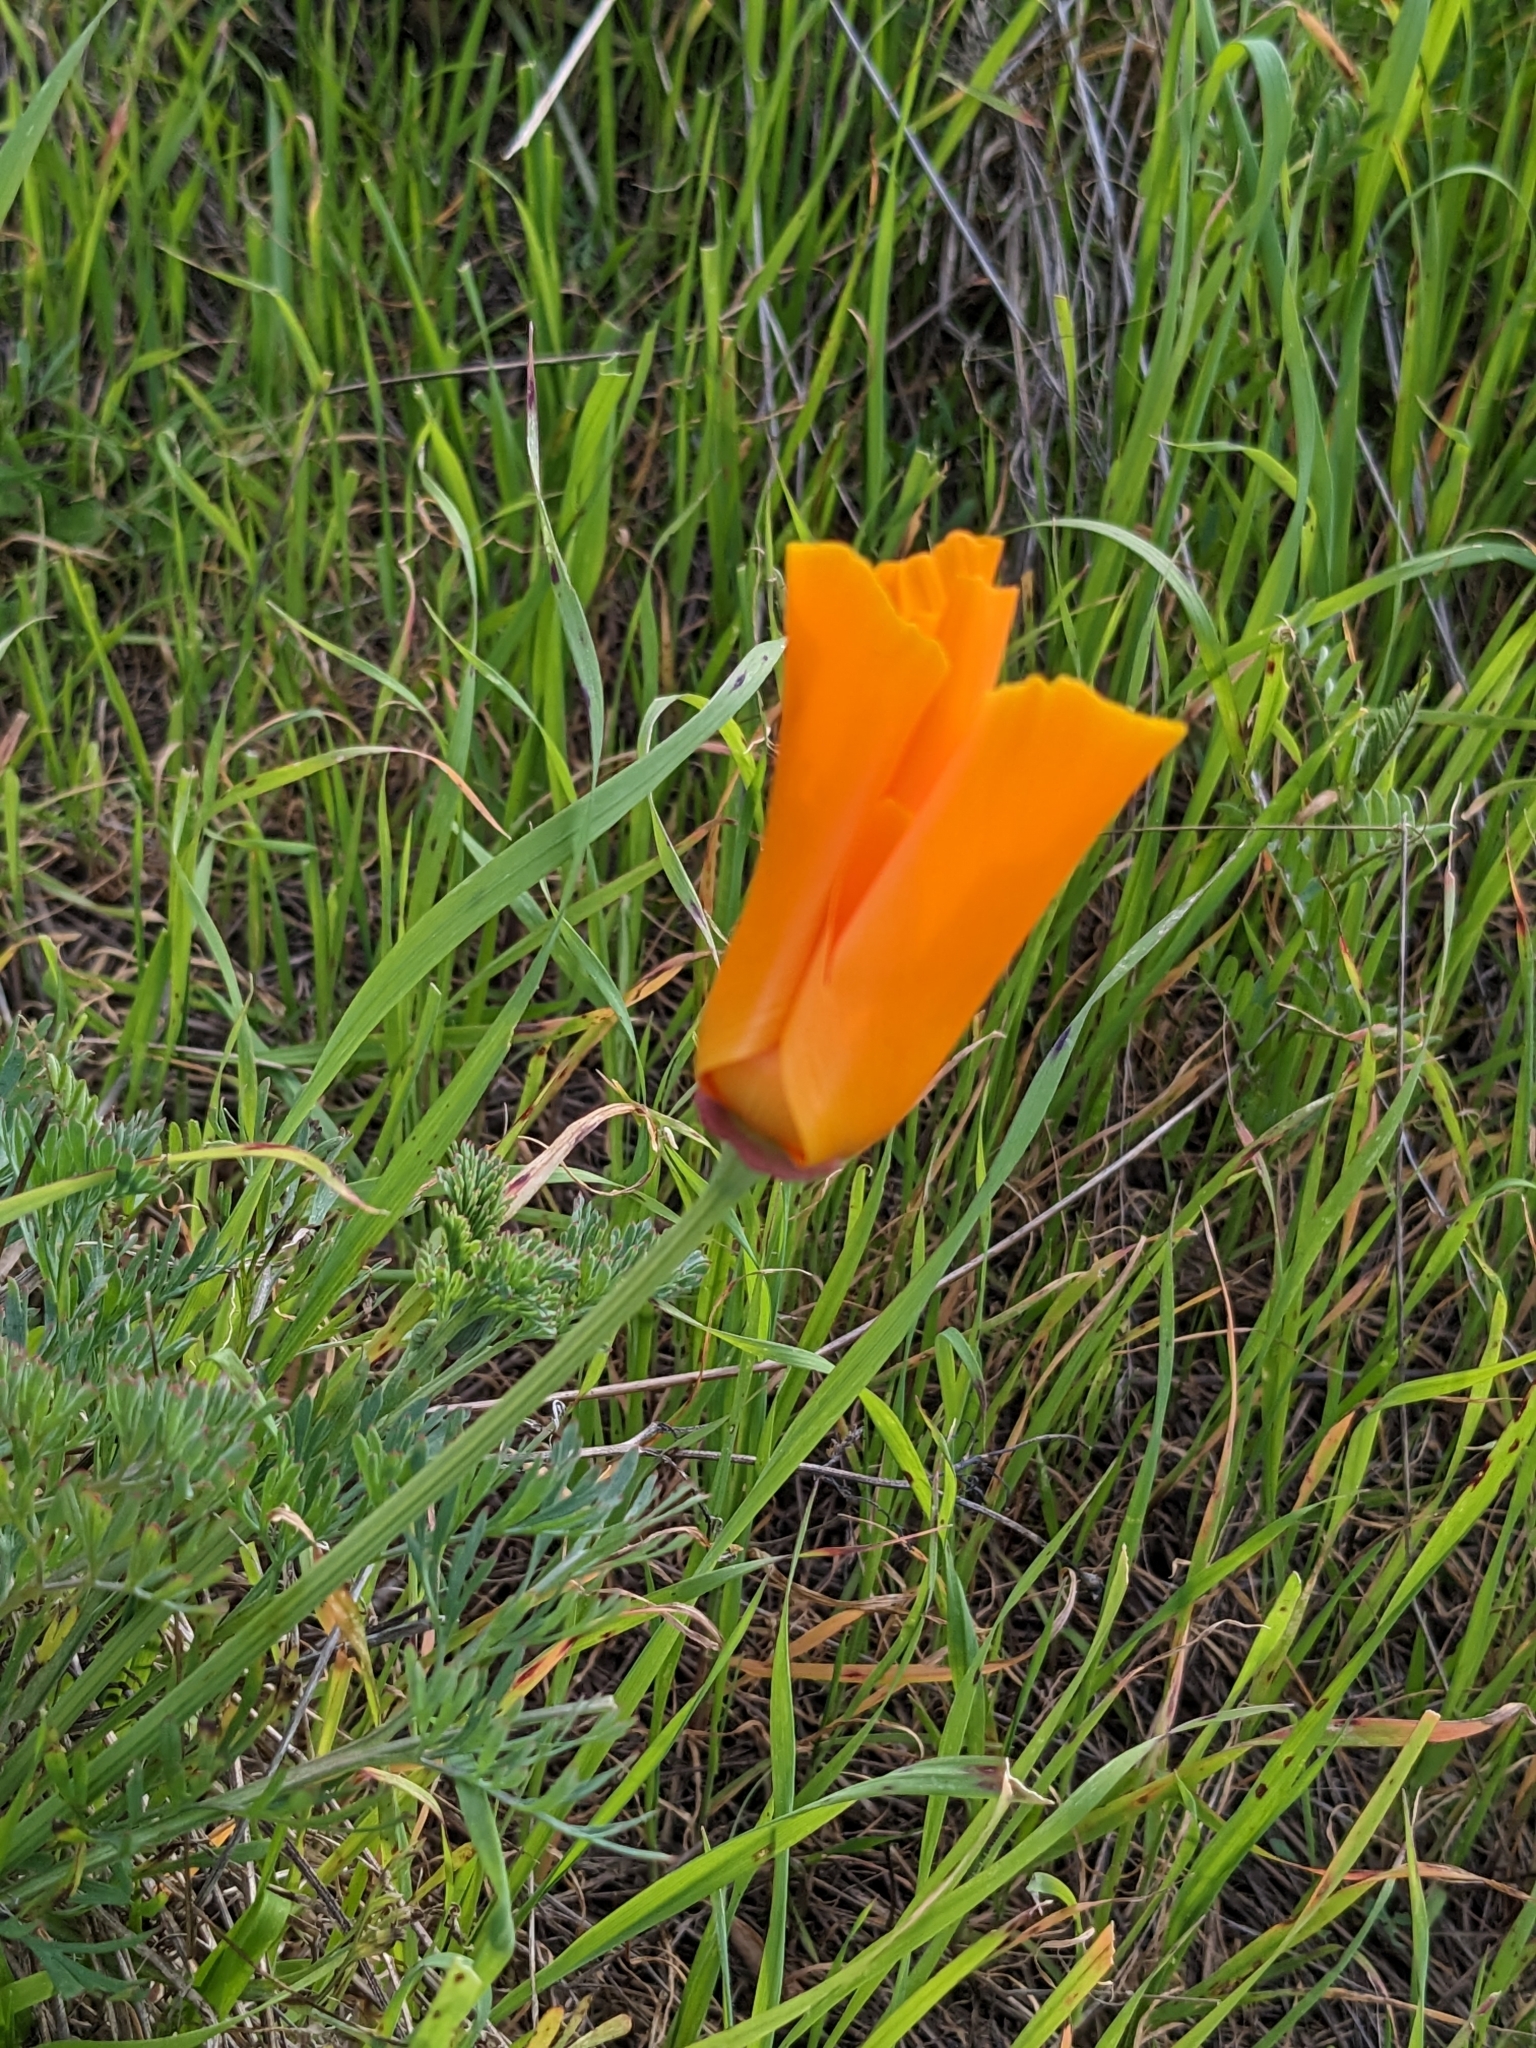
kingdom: Plantae
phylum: Tracheophyta
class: Magnoliopsida
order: Ranunculales
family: Papaveraceae
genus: Eschscholzia
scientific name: Eschscholzia californica
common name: California poppy
